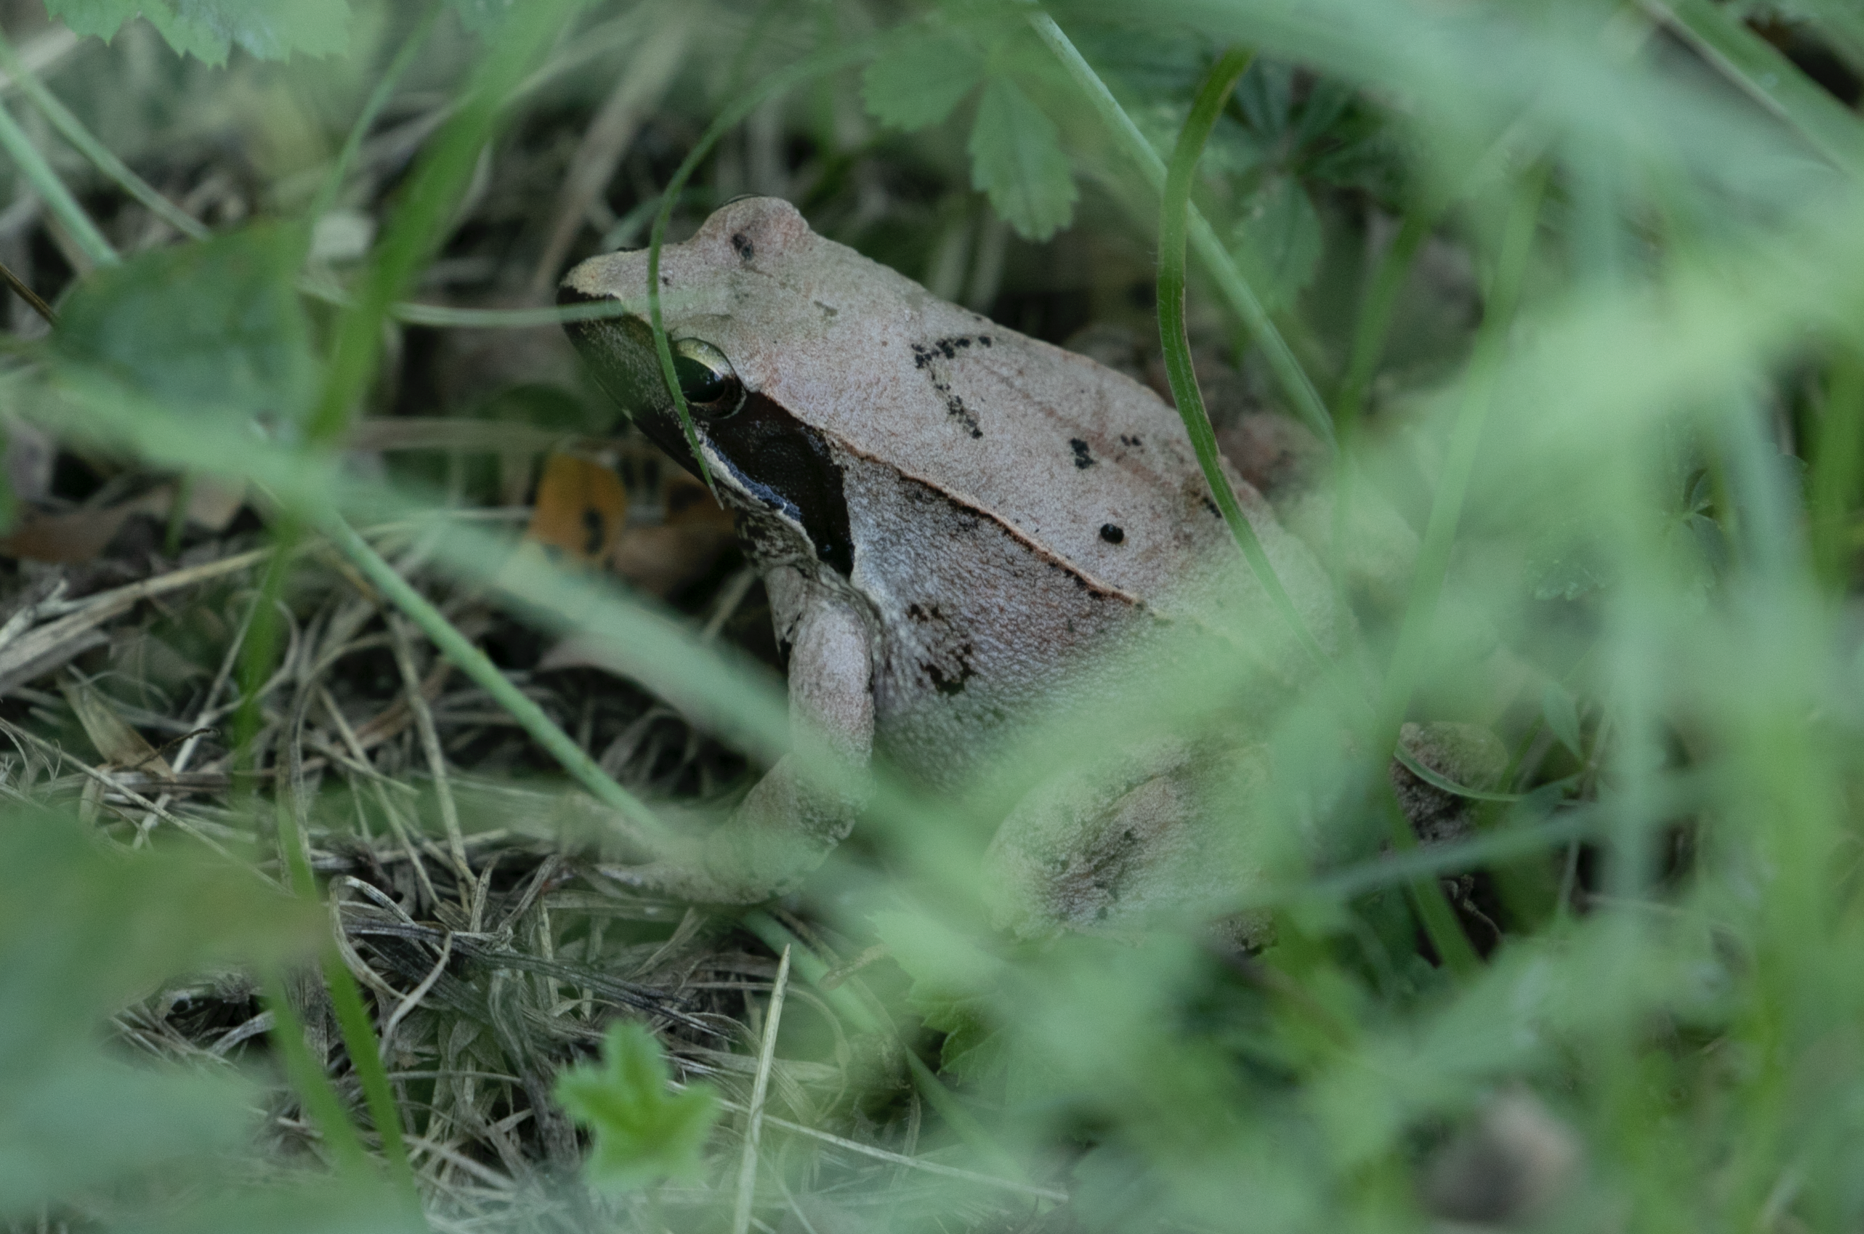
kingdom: Animalia
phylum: Chordata
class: Amphibia
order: Anura
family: Ranidae
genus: Rana
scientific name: Rana latastei
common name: Italian agile frog
